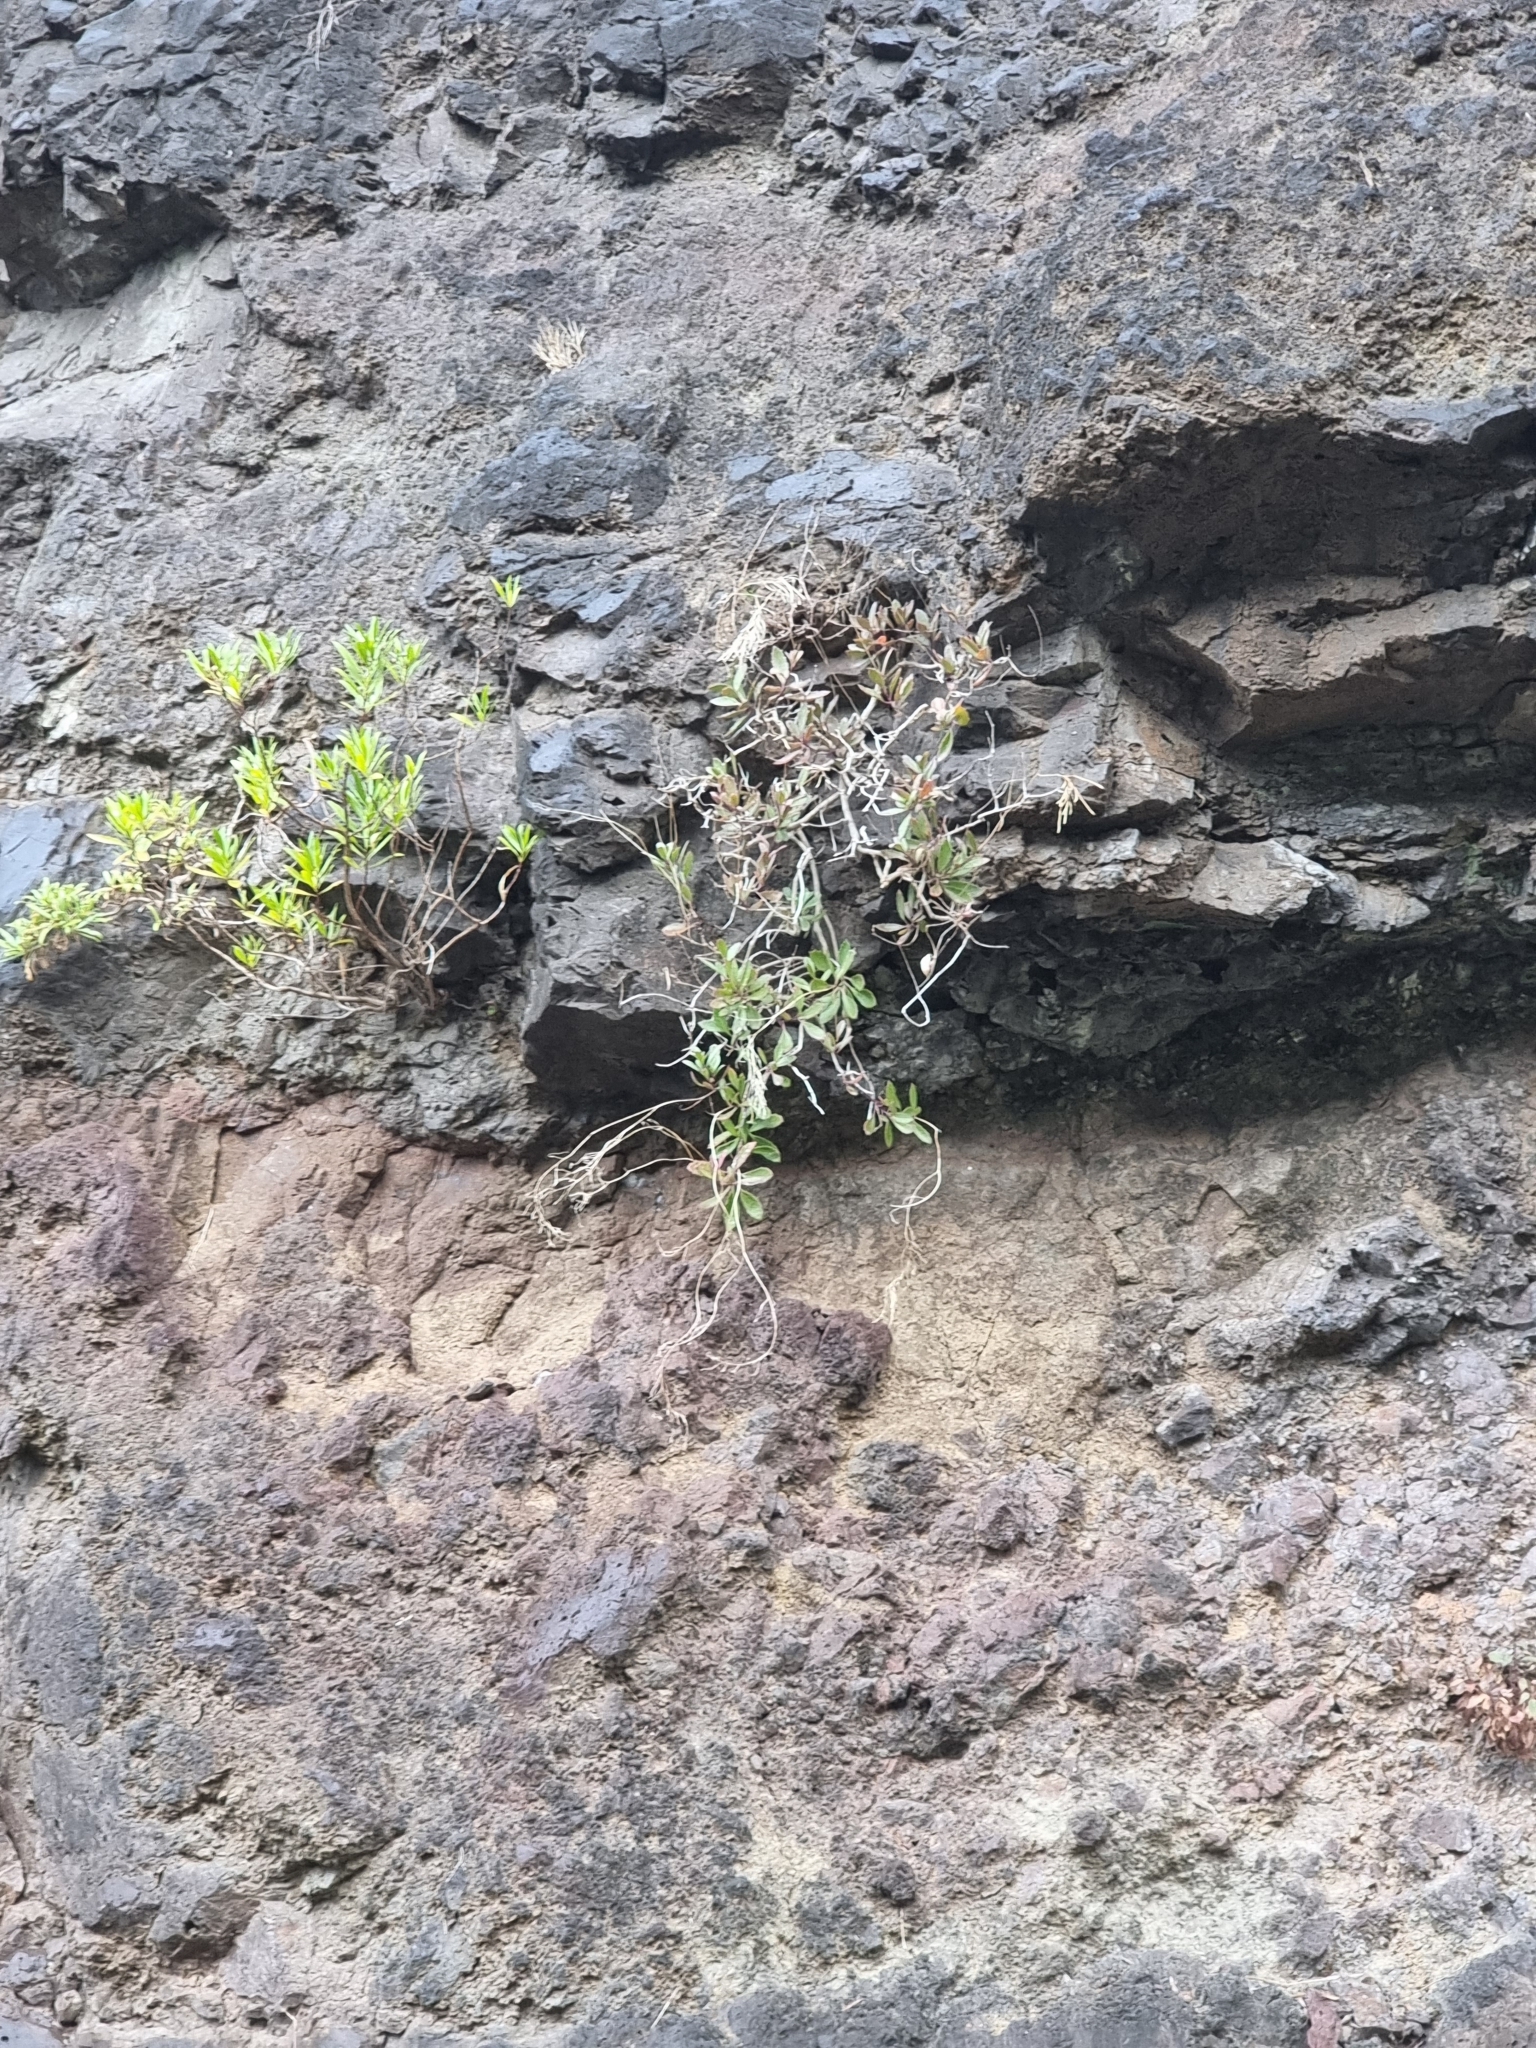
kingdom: Plantae
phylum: Tracheophyta
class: Magnoliopsida
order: Brassicales
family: Brassicaceae
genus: Sinapidendron
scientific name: Sinapidendron frutescens
